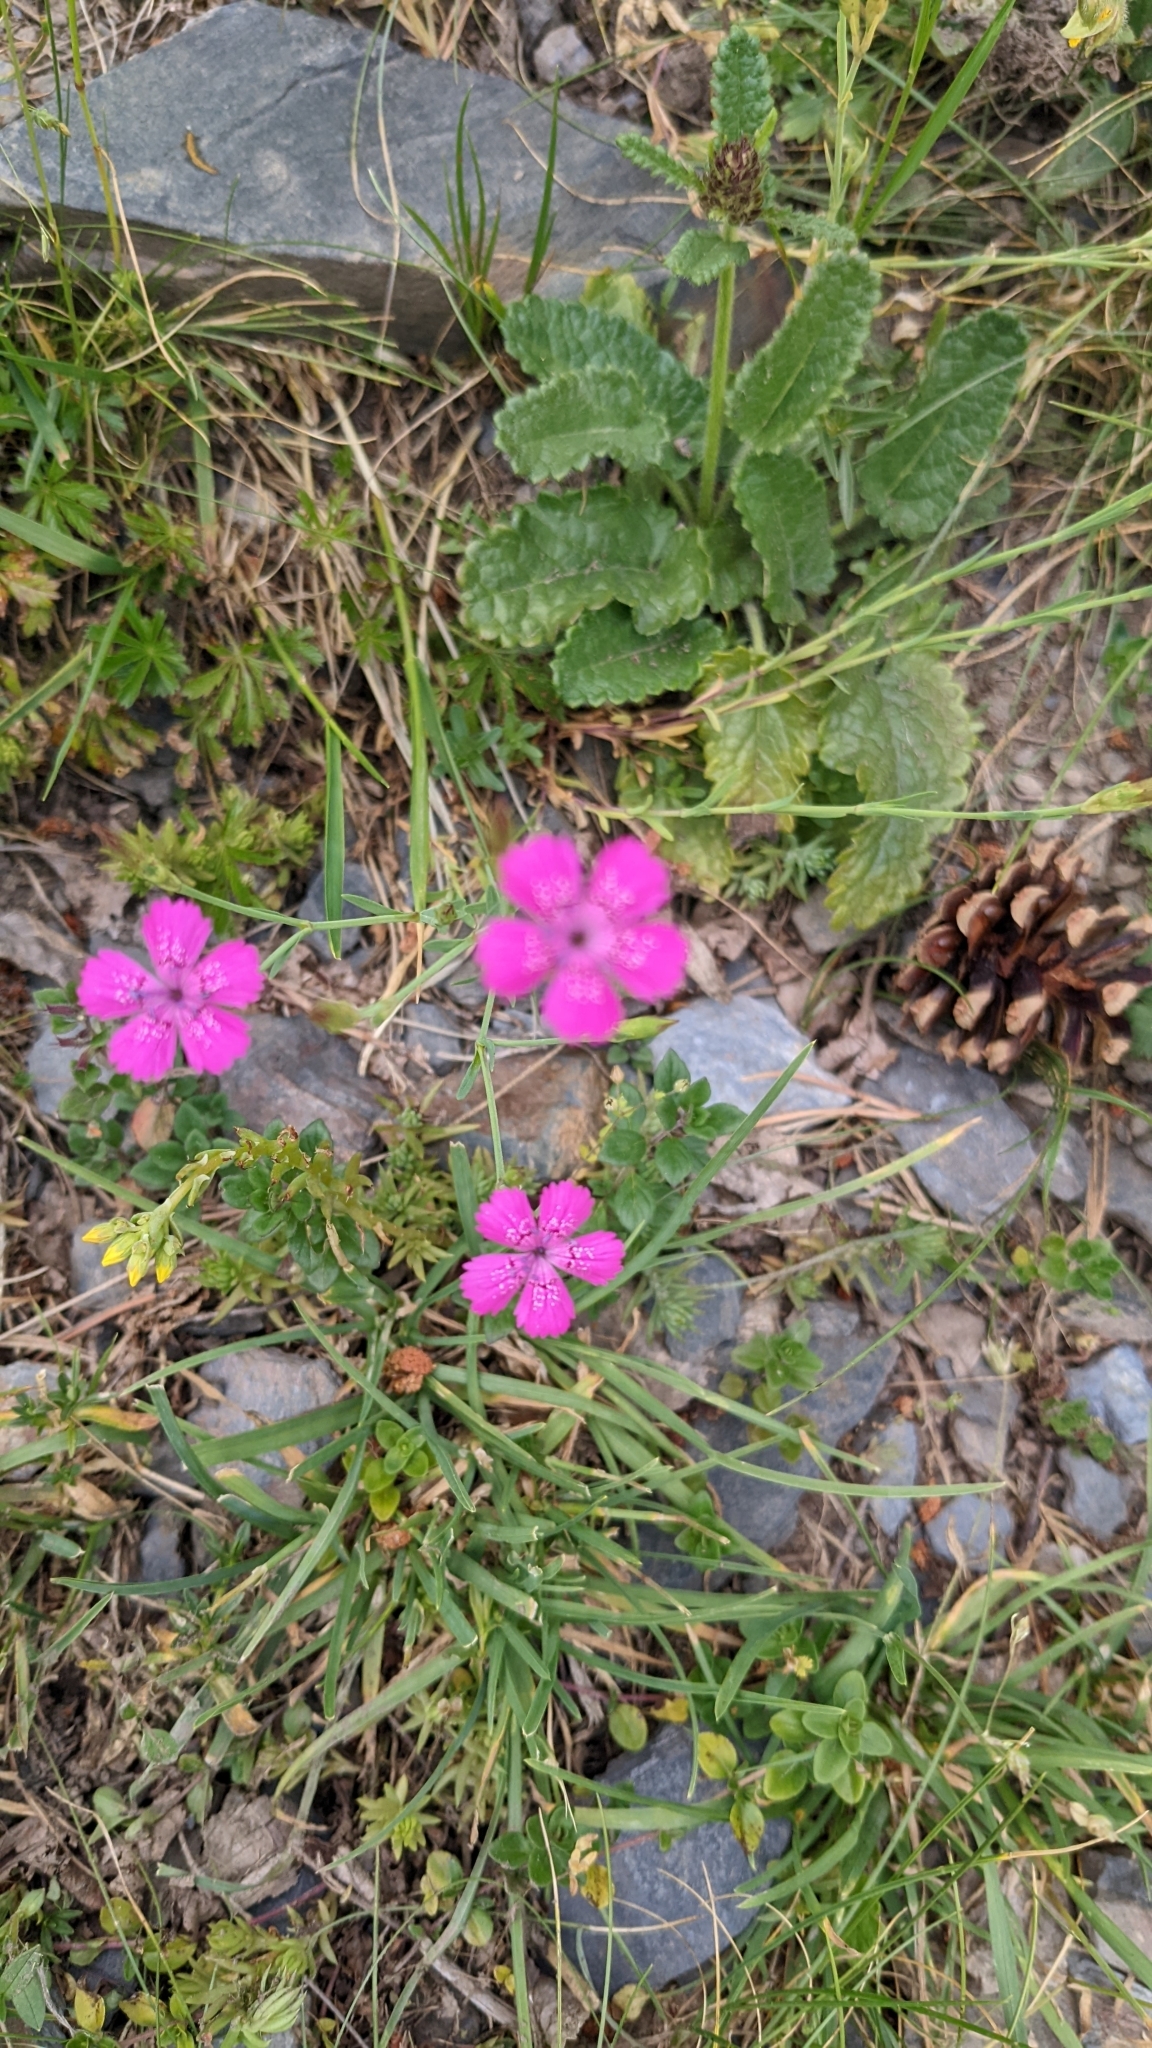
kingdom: Plantae
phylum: Tracheophyta
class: Magnoliopsida
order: Caryophyllales
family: Caryophyllaceae
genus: Dianthus
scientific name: Dianthus deltoides
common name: Maiden pink
